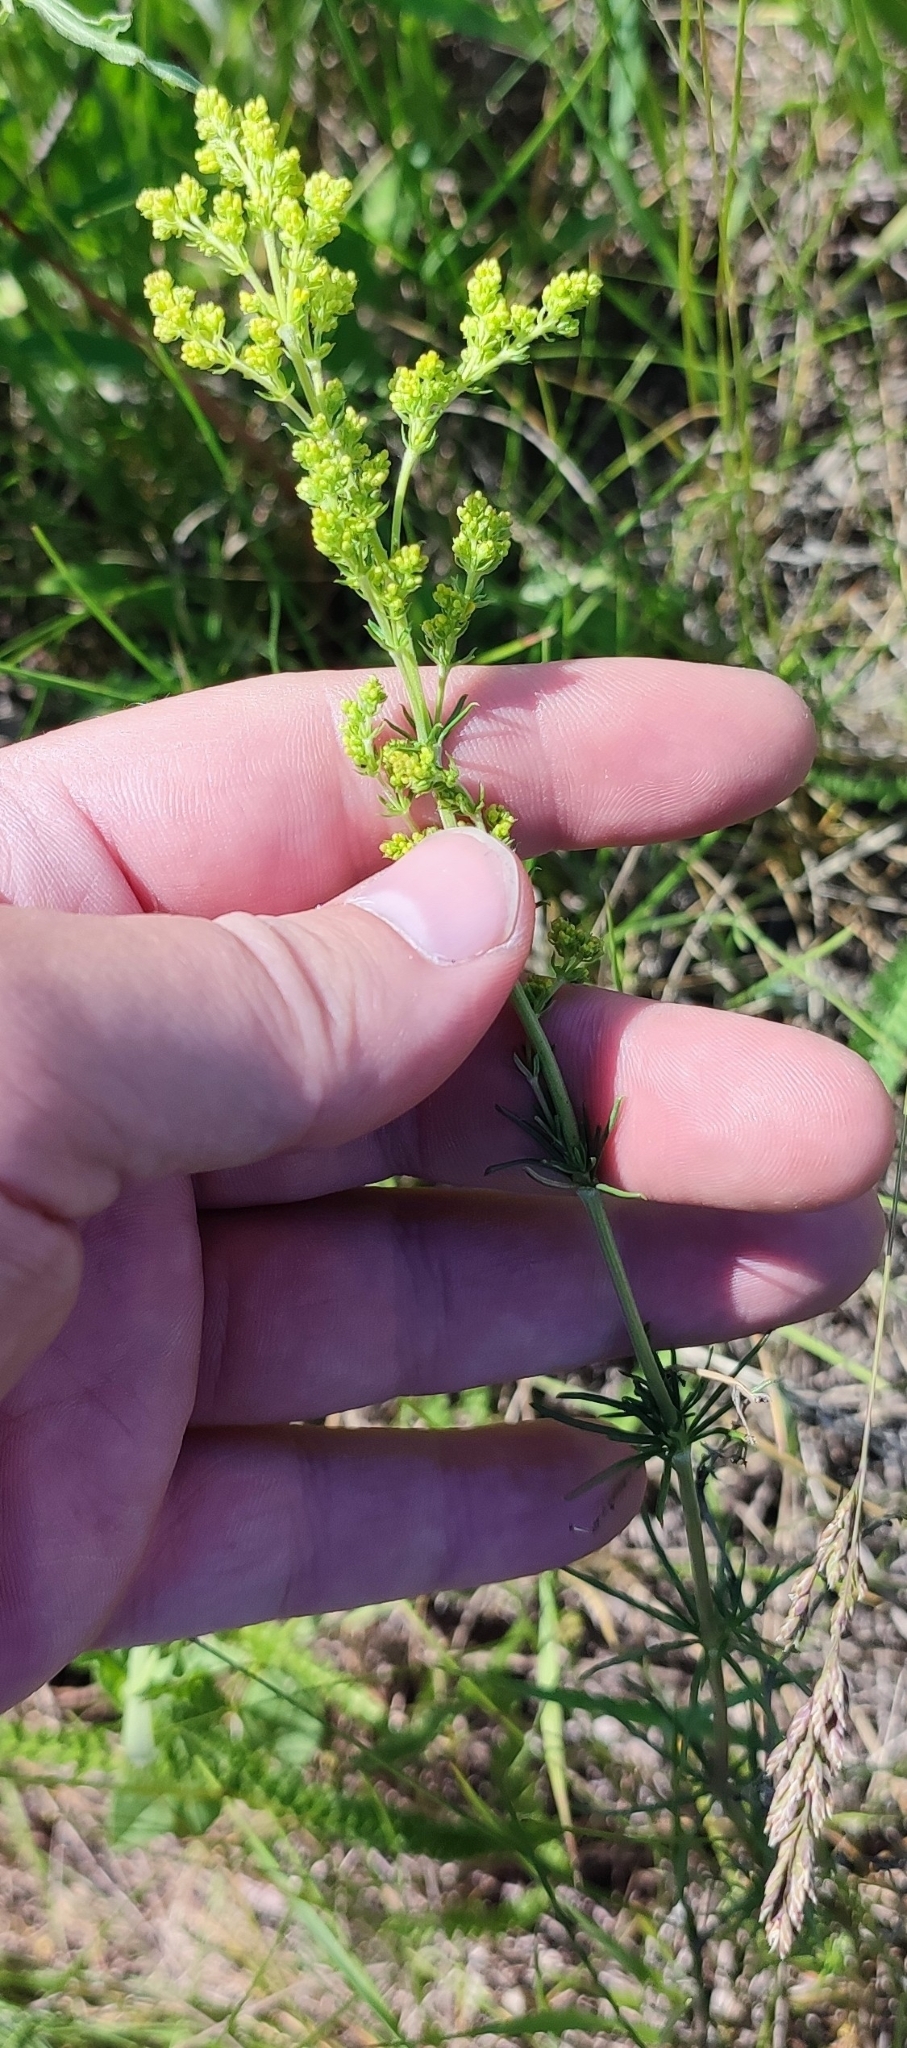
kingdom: Plantae
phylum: Tracheophyta
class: Magnoliopsida
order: Gentianales
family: Rubiaceae
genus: Galium
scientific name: Galium verum
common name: Lady's bedstraw
